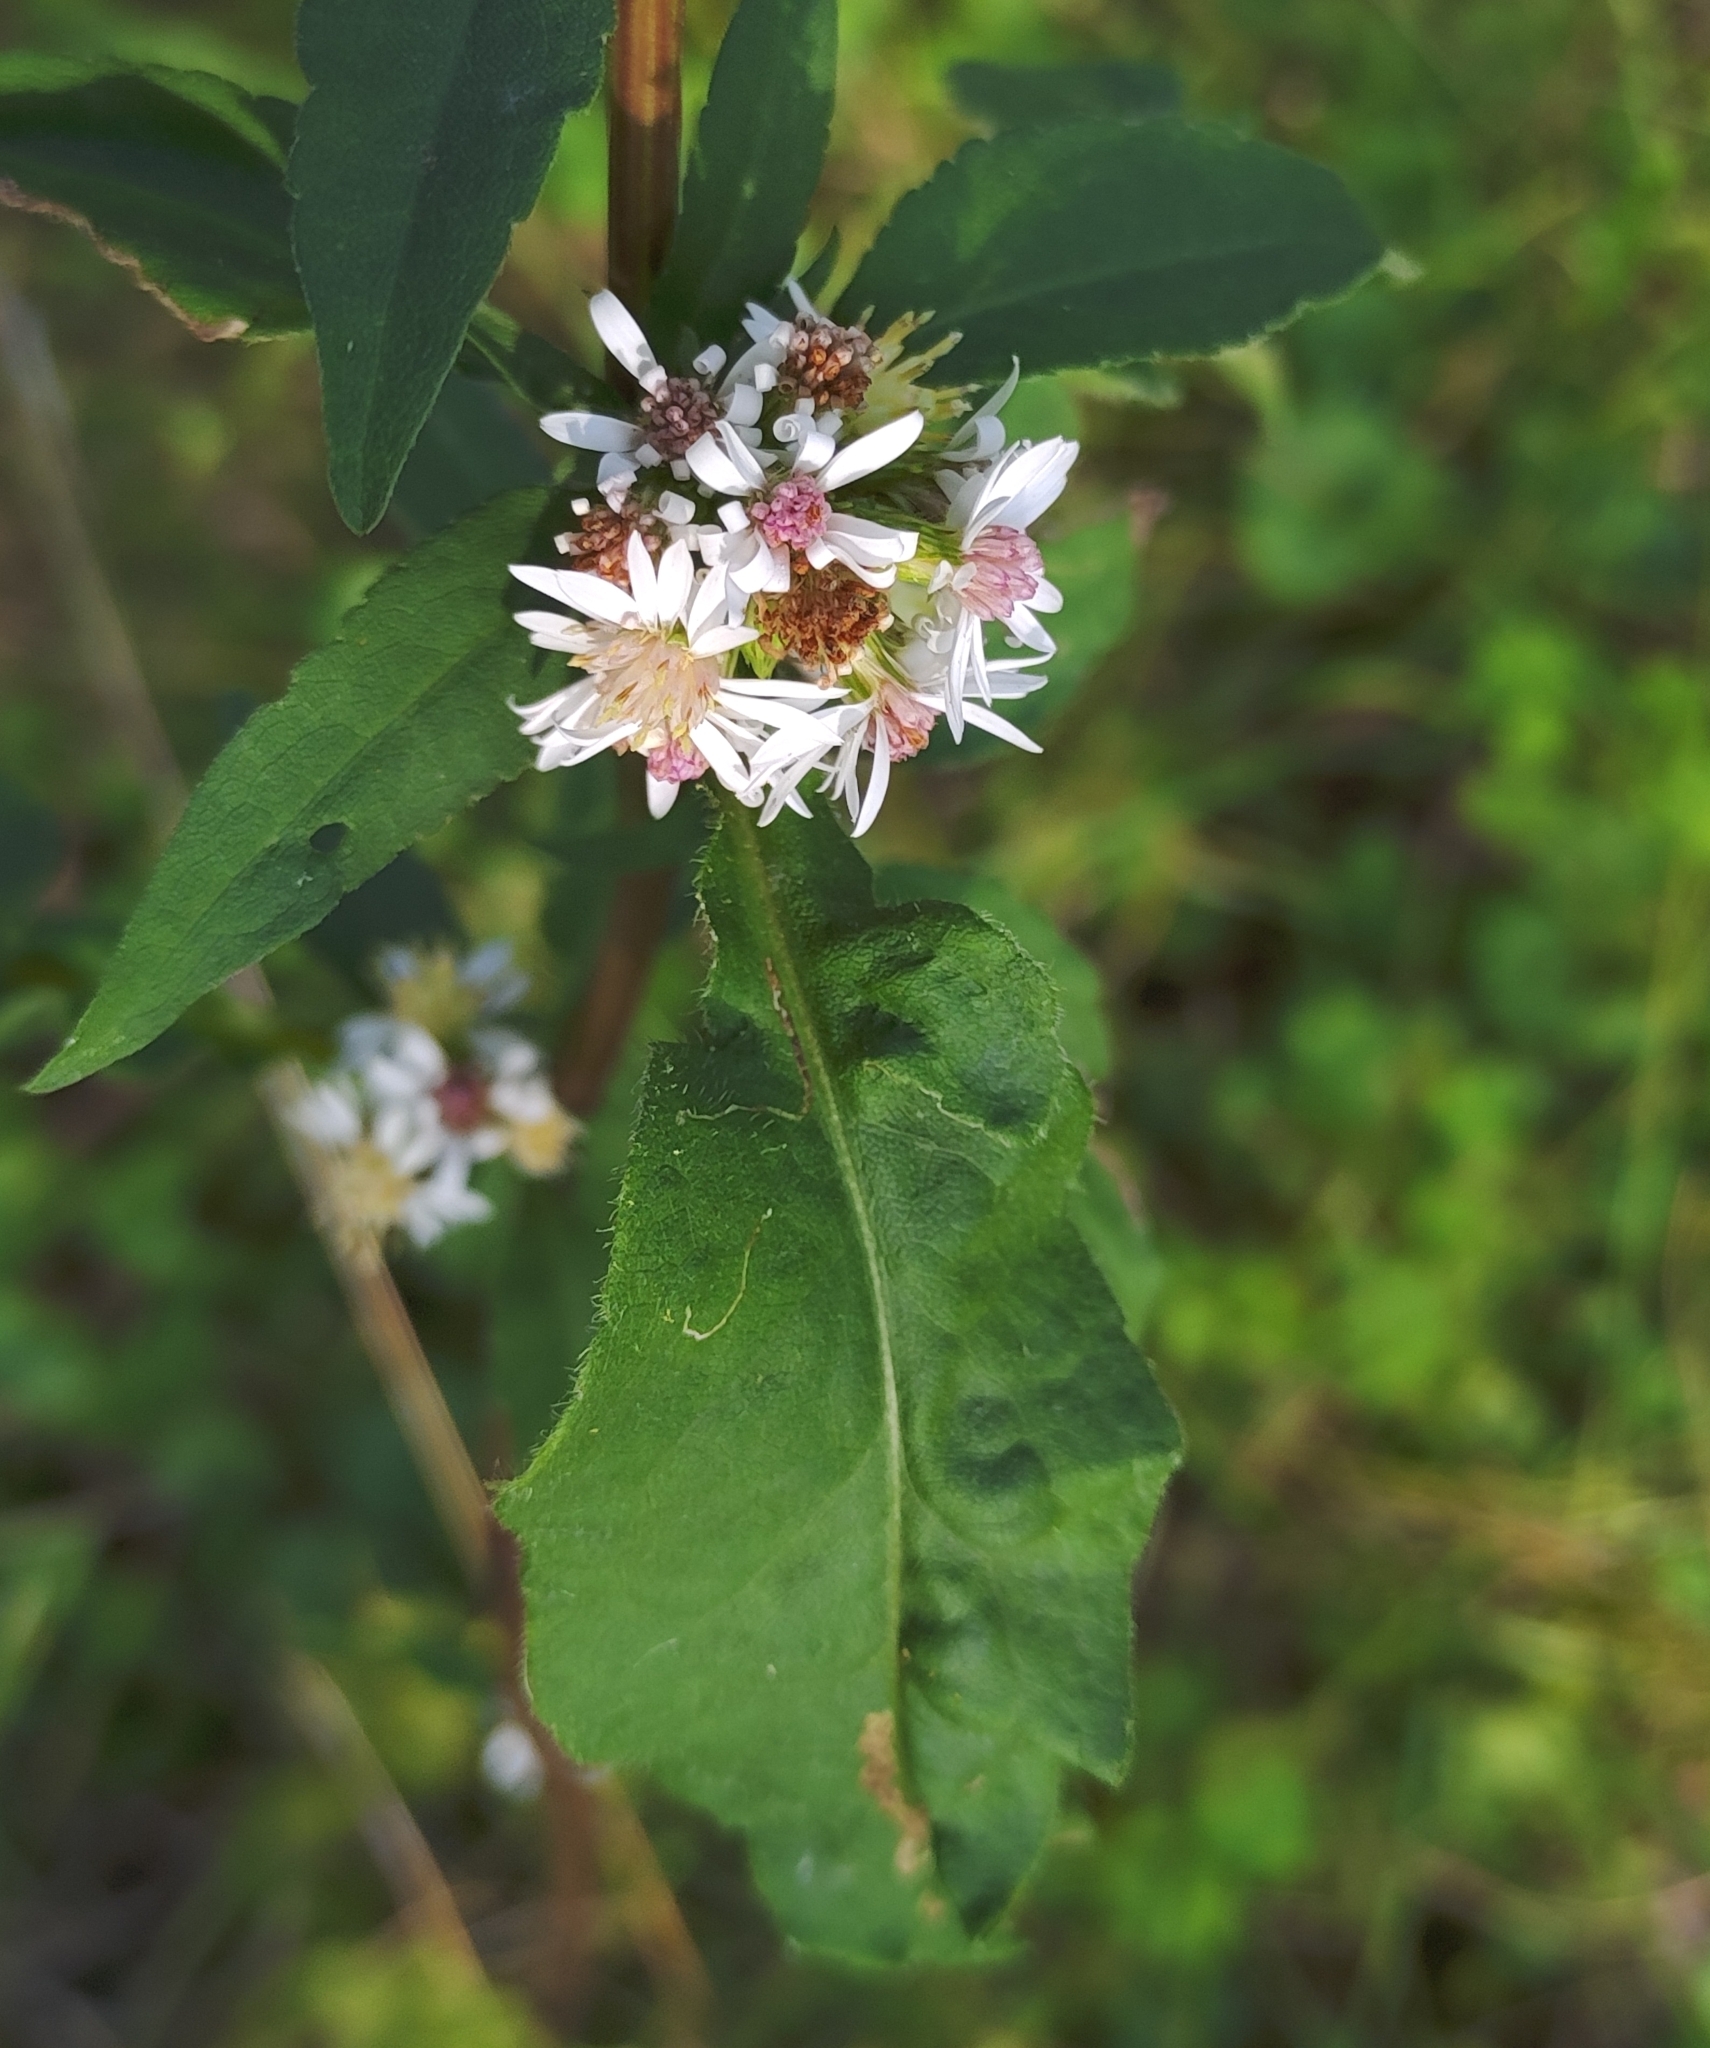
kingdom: Plantae
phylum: Tracheophyta
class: Magnoliopsida
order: Asterales
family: Asteraceae
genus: Symphyotrichum
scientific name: Symphyotrichum urophyllum
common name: Arrow-leaved aster
